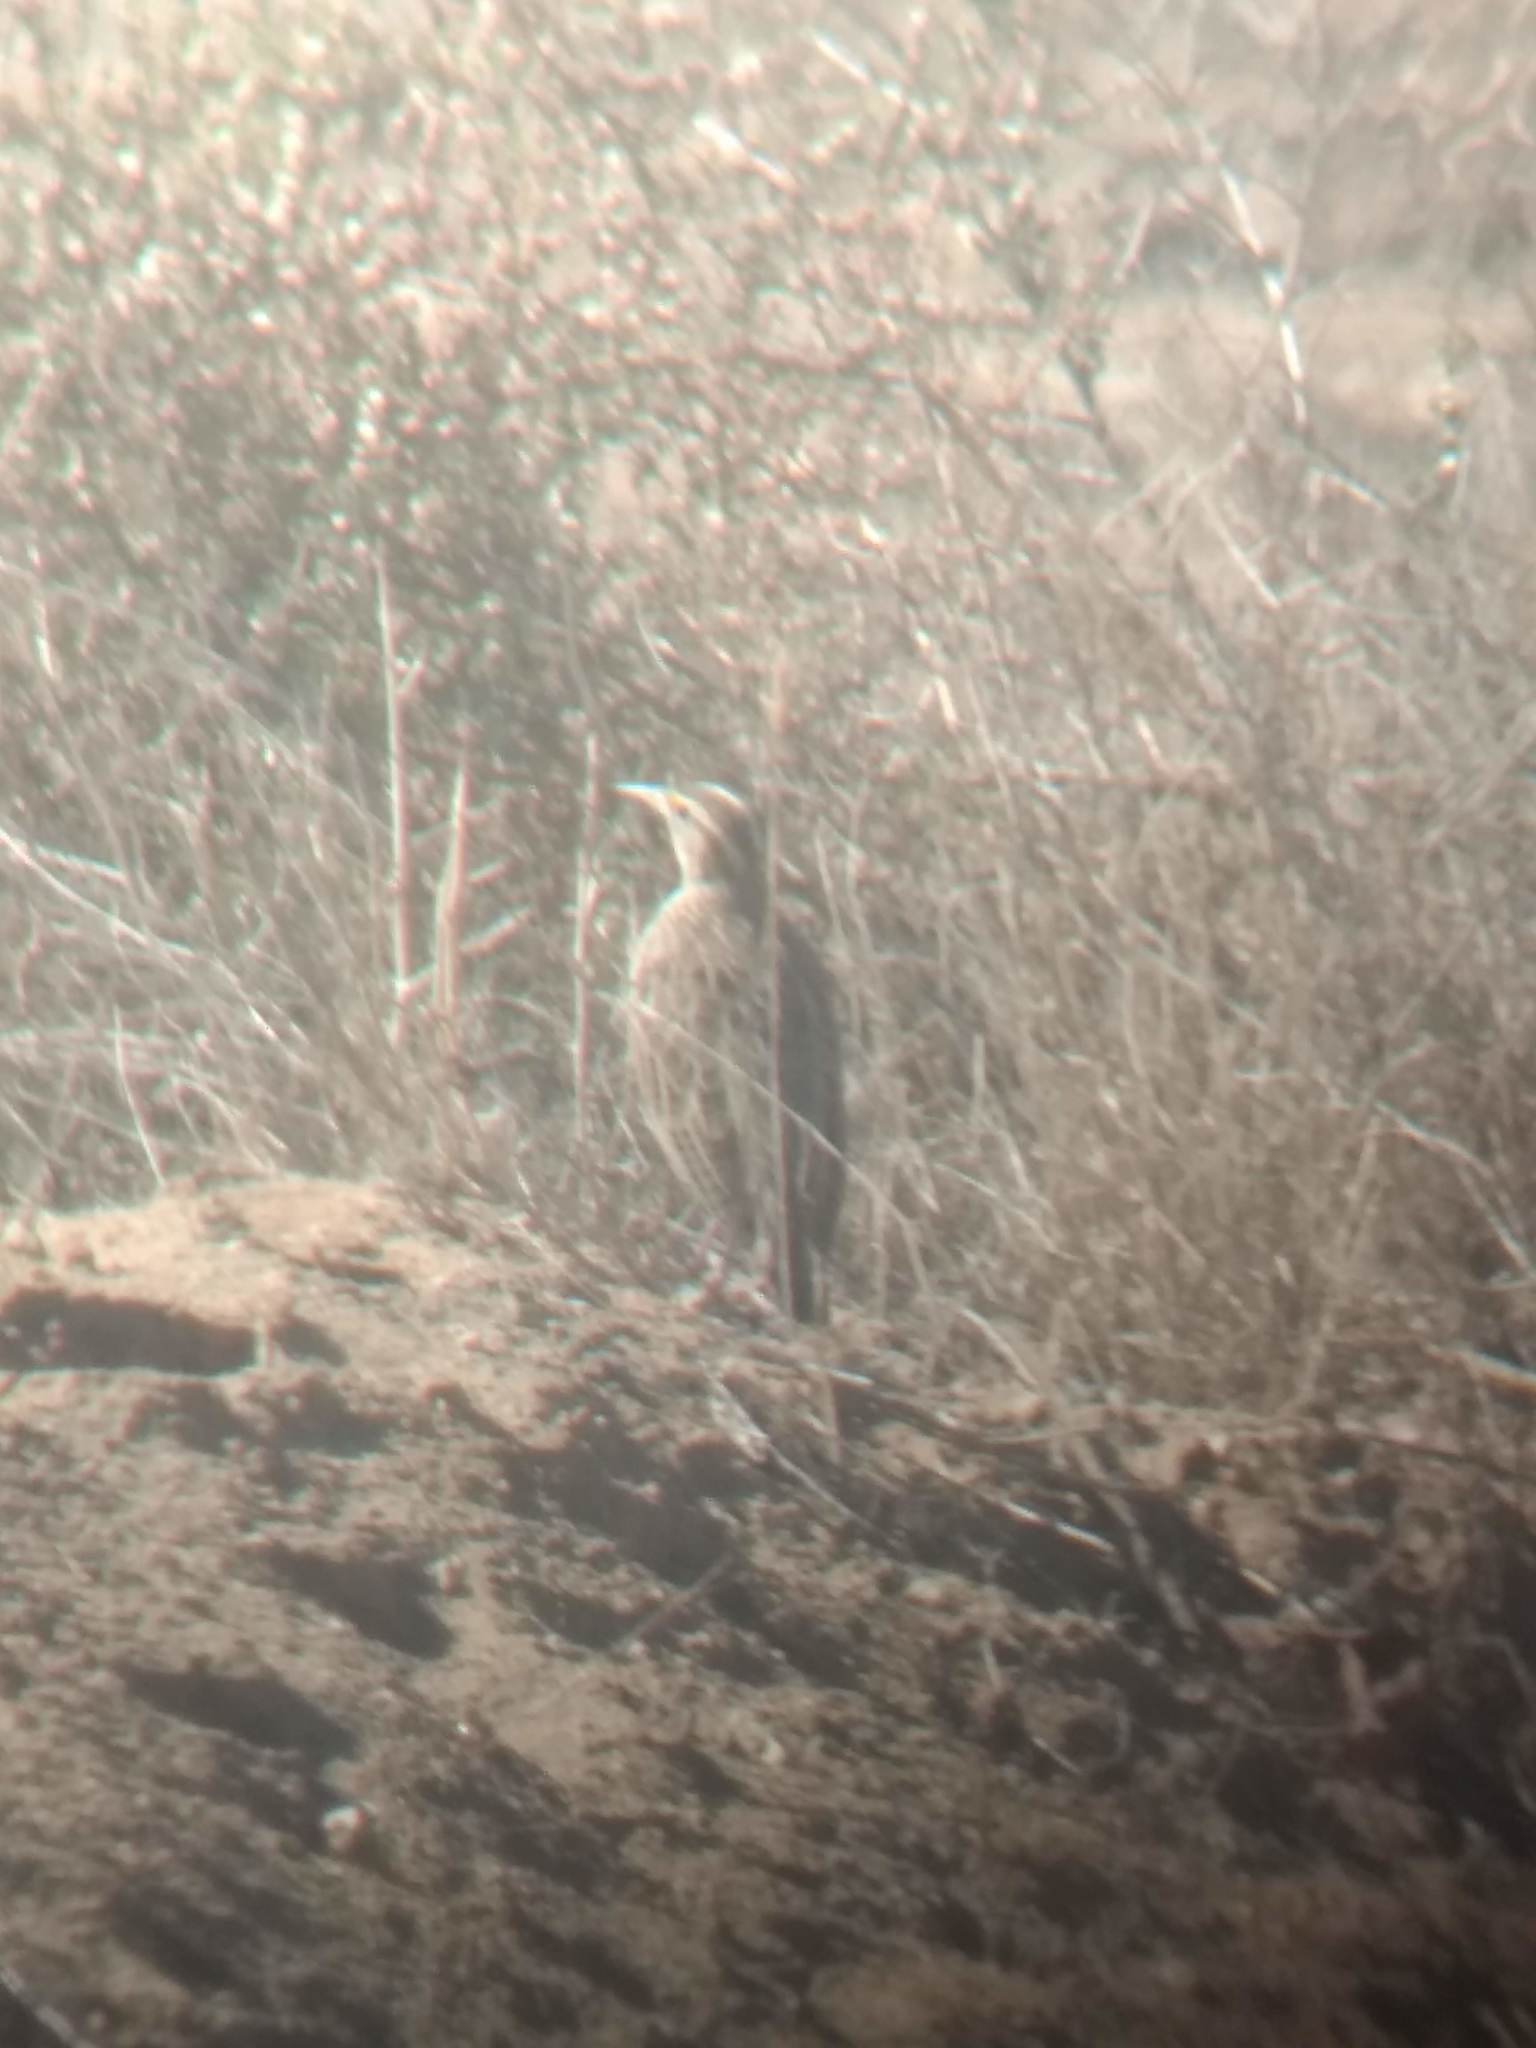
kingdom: Animalia
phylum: Chordata
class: Aves
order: Passeriformes
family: Icteridae
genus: Sturnella
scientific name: Sturnella neglecta
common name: Western meadowlark
